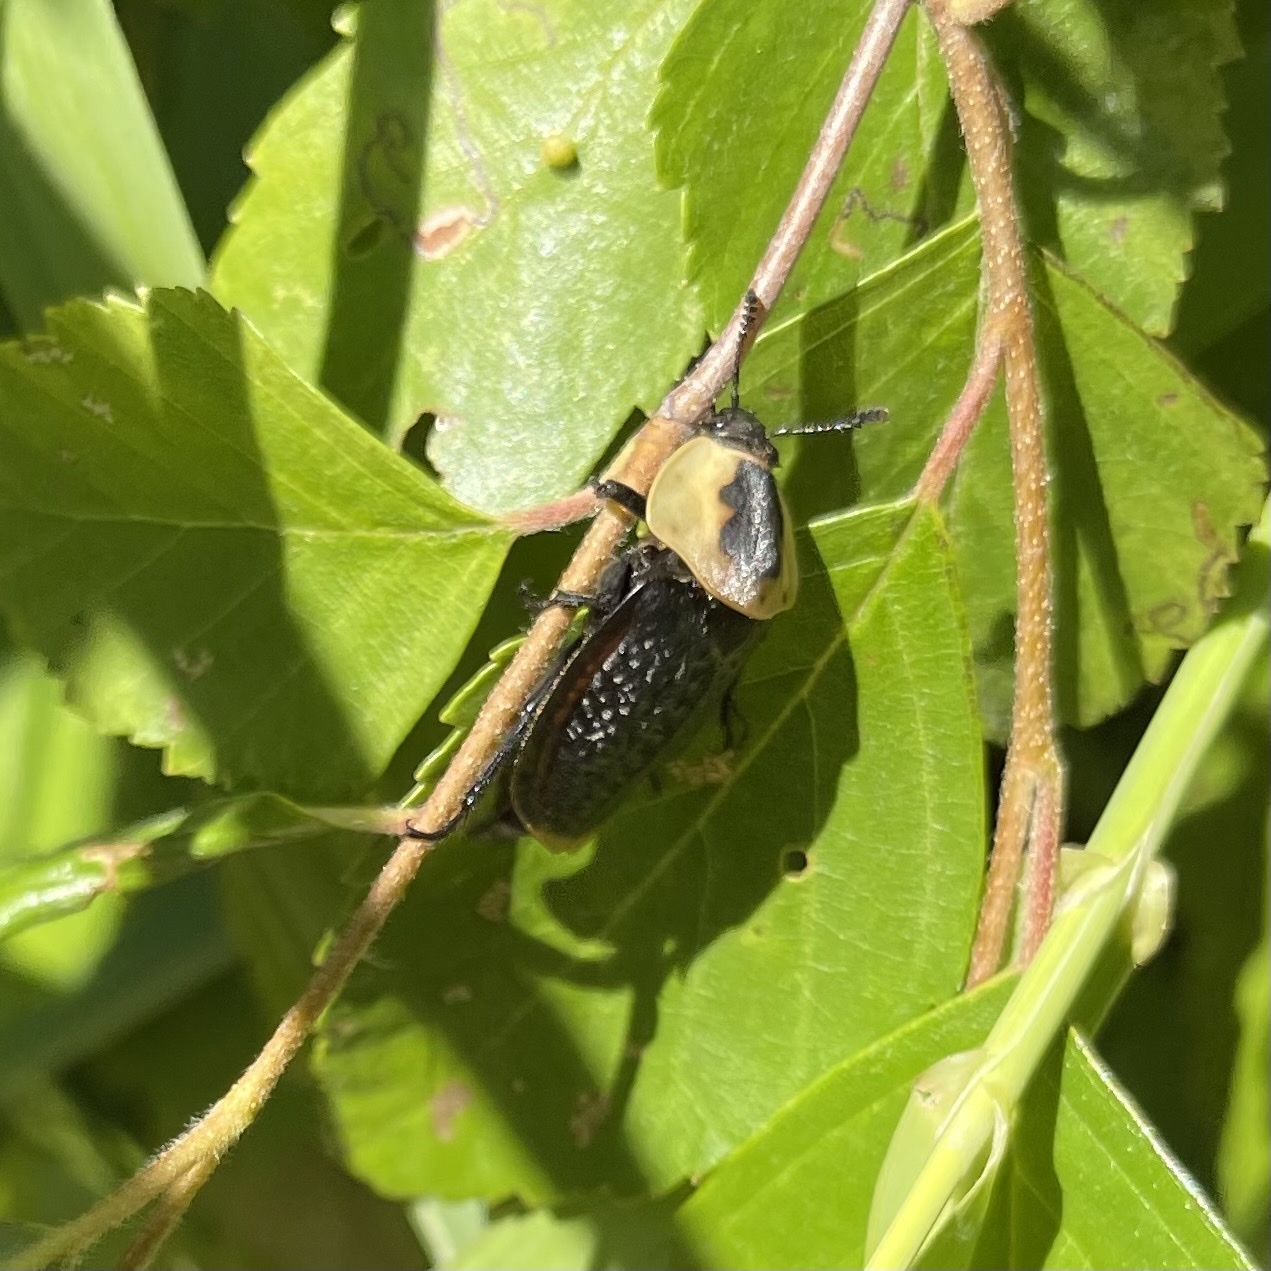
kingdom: Animalia
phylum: Arthropoda
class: Insecta
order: Coleoptera
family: Staphylinidae
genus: Necrophila
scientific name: Necrophila americana
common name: American carrion beetle
